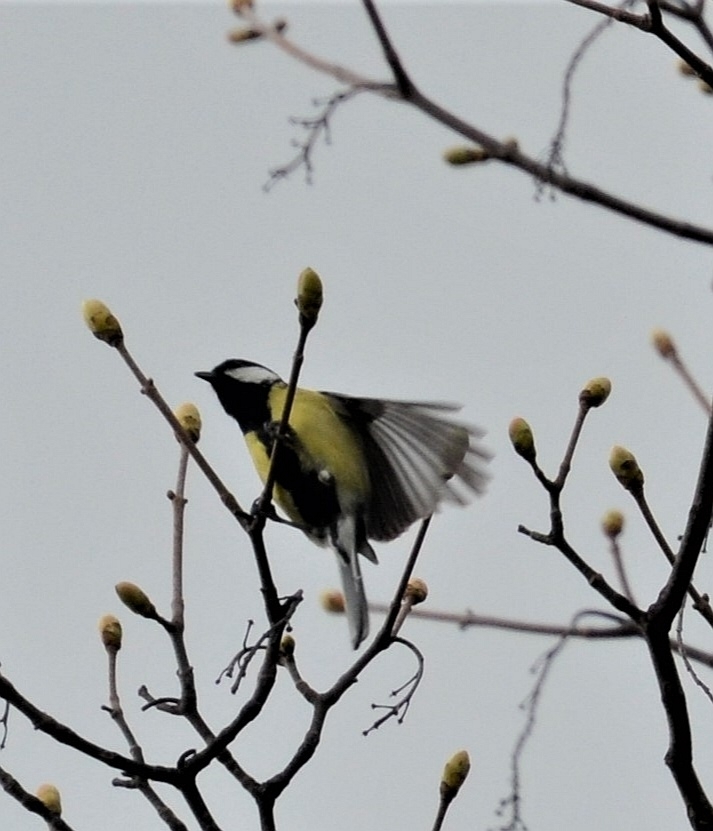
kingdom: Animalia
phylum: Chordata
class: Aves
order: Passeriformes
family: Paridae
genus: Parus
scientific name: Parus major
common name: Great tit
